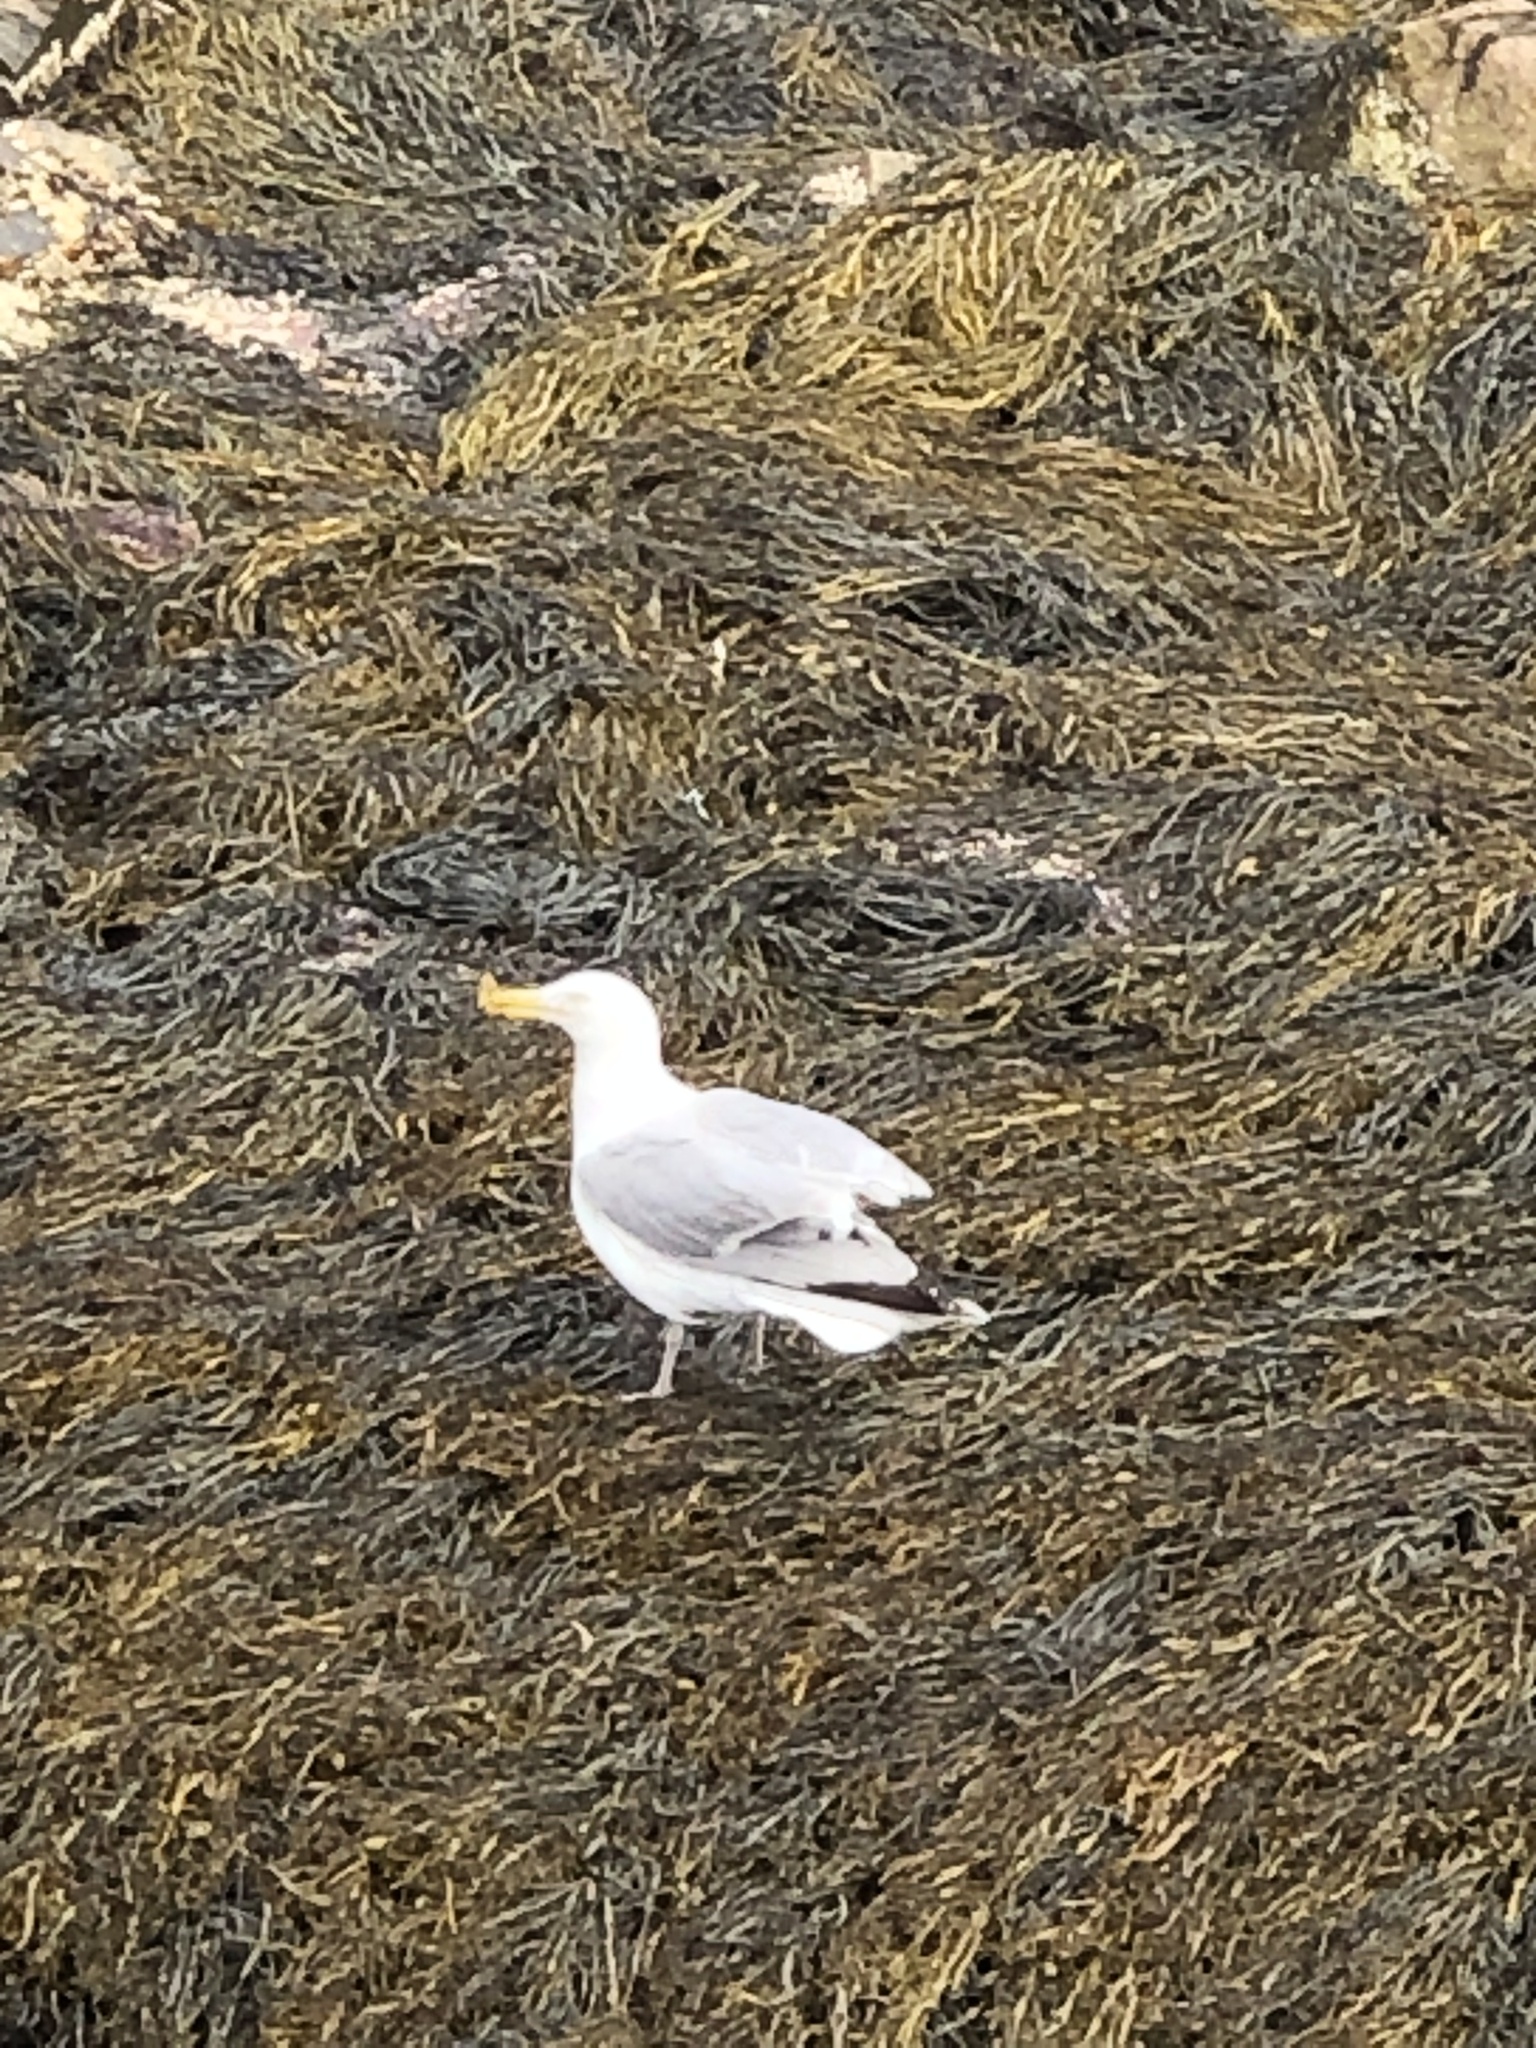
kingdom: Animalia
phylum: Chordata
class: Aves
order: Charadriiformes
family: Laridae
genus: Larus
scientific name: Larus argentatus
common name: Herring gull
